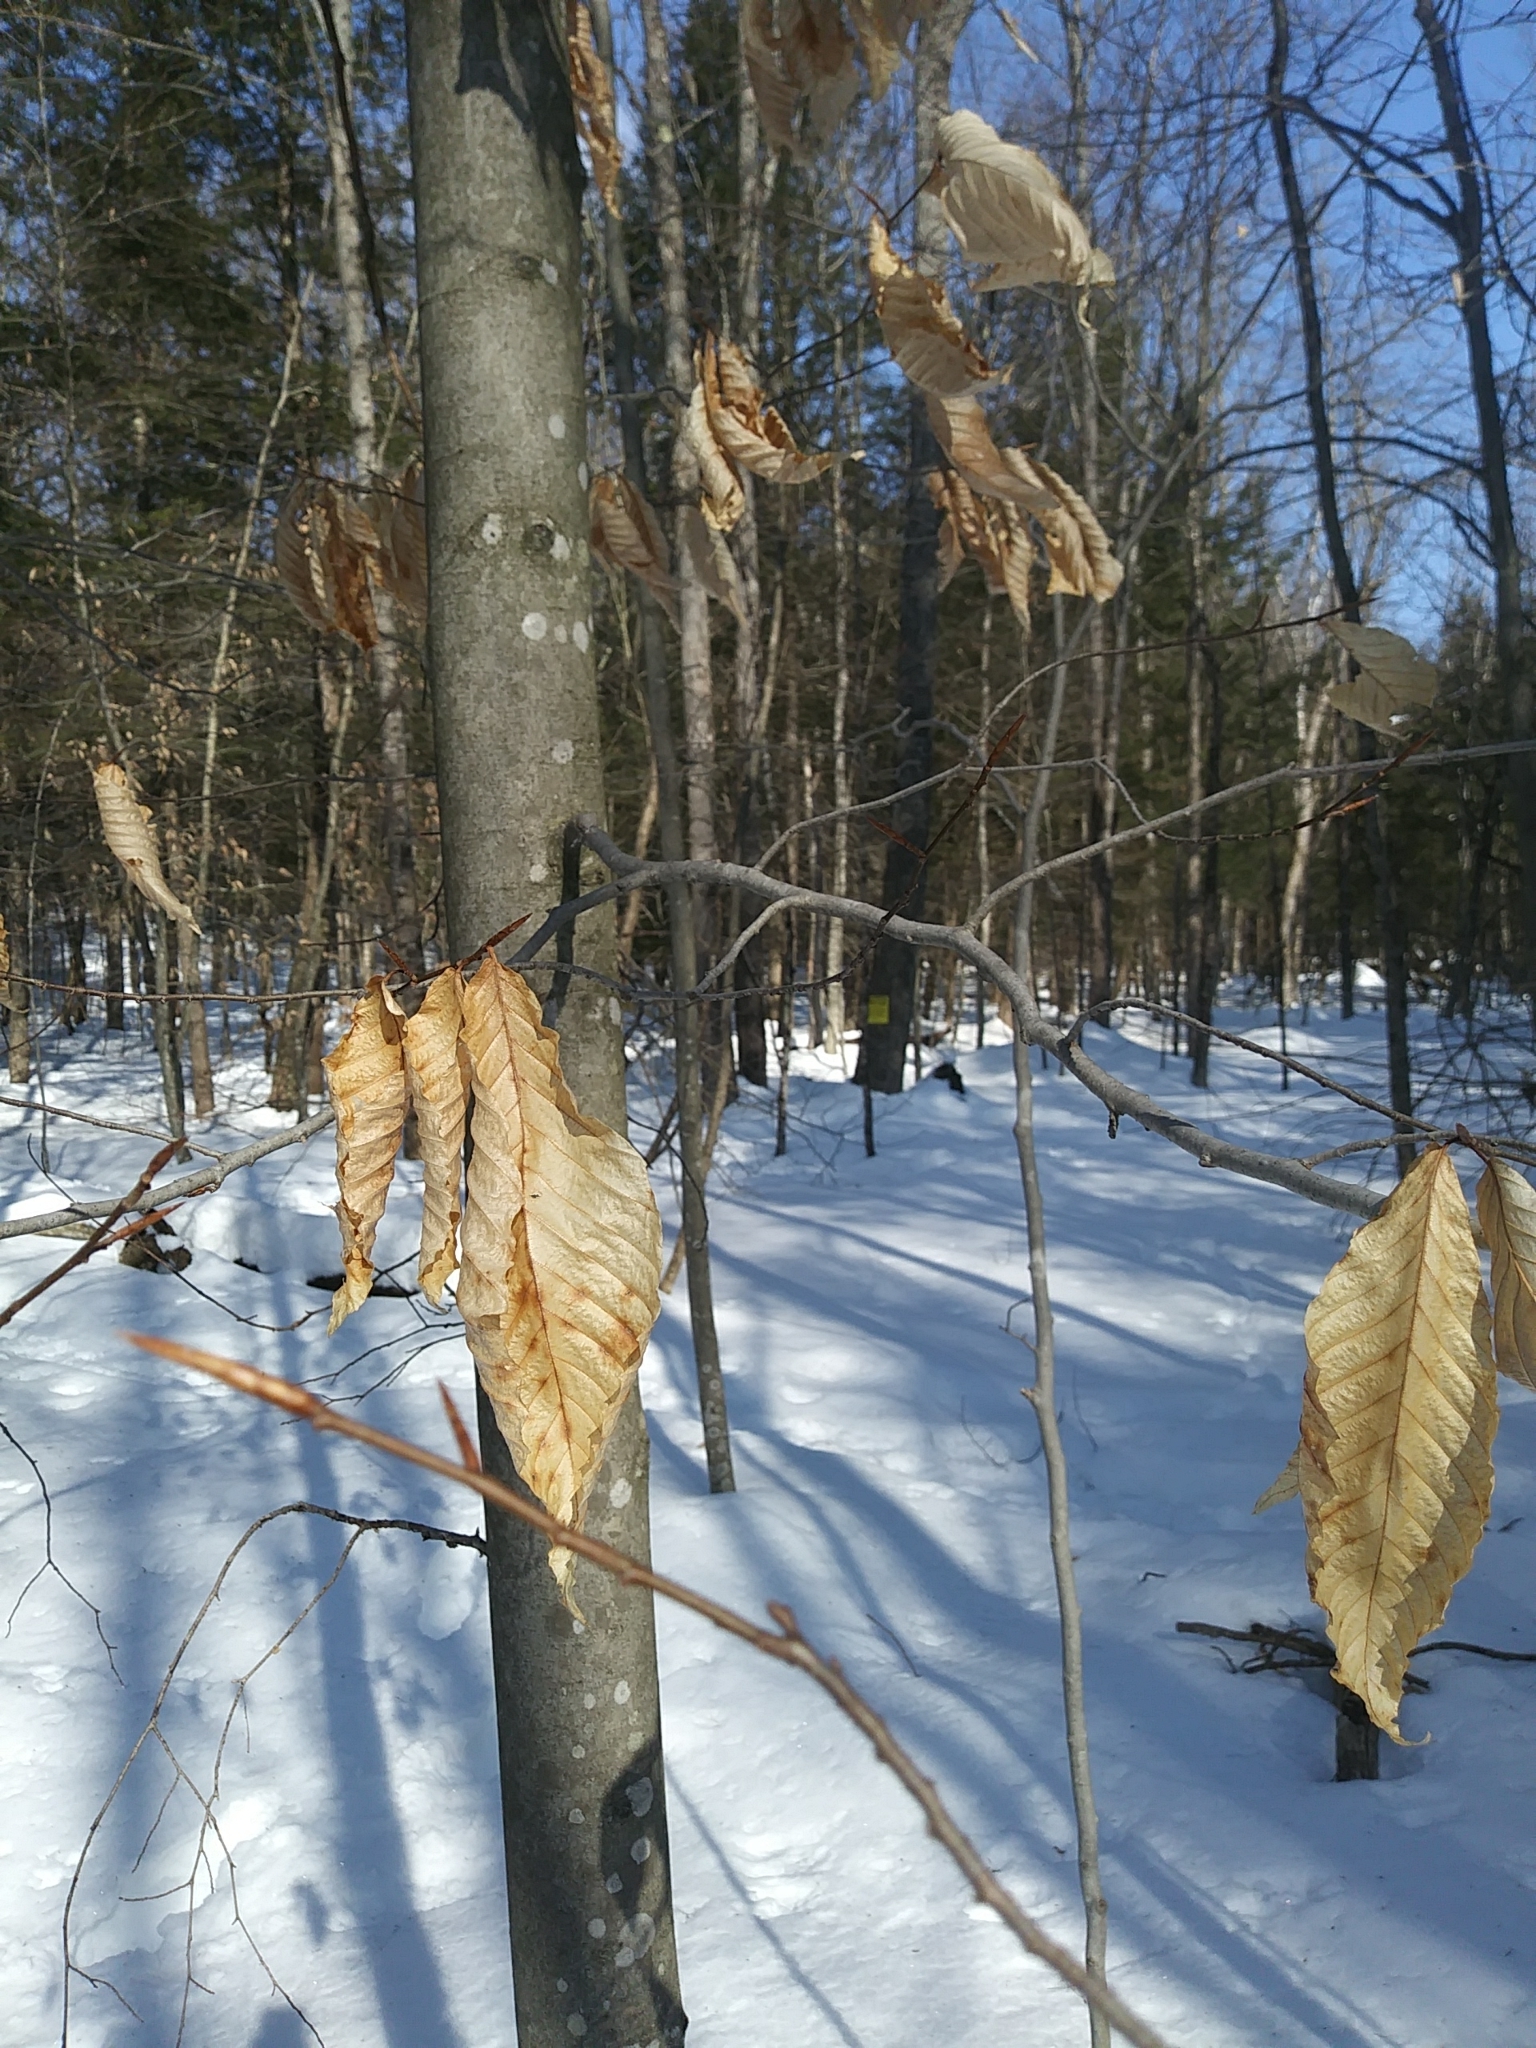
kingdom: Plantae
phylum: Tracheophyta
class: Magnoliopsida
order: Fagales
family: Fagaceae
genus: Fagus
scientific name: Fagus grandifolia
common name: American beech
